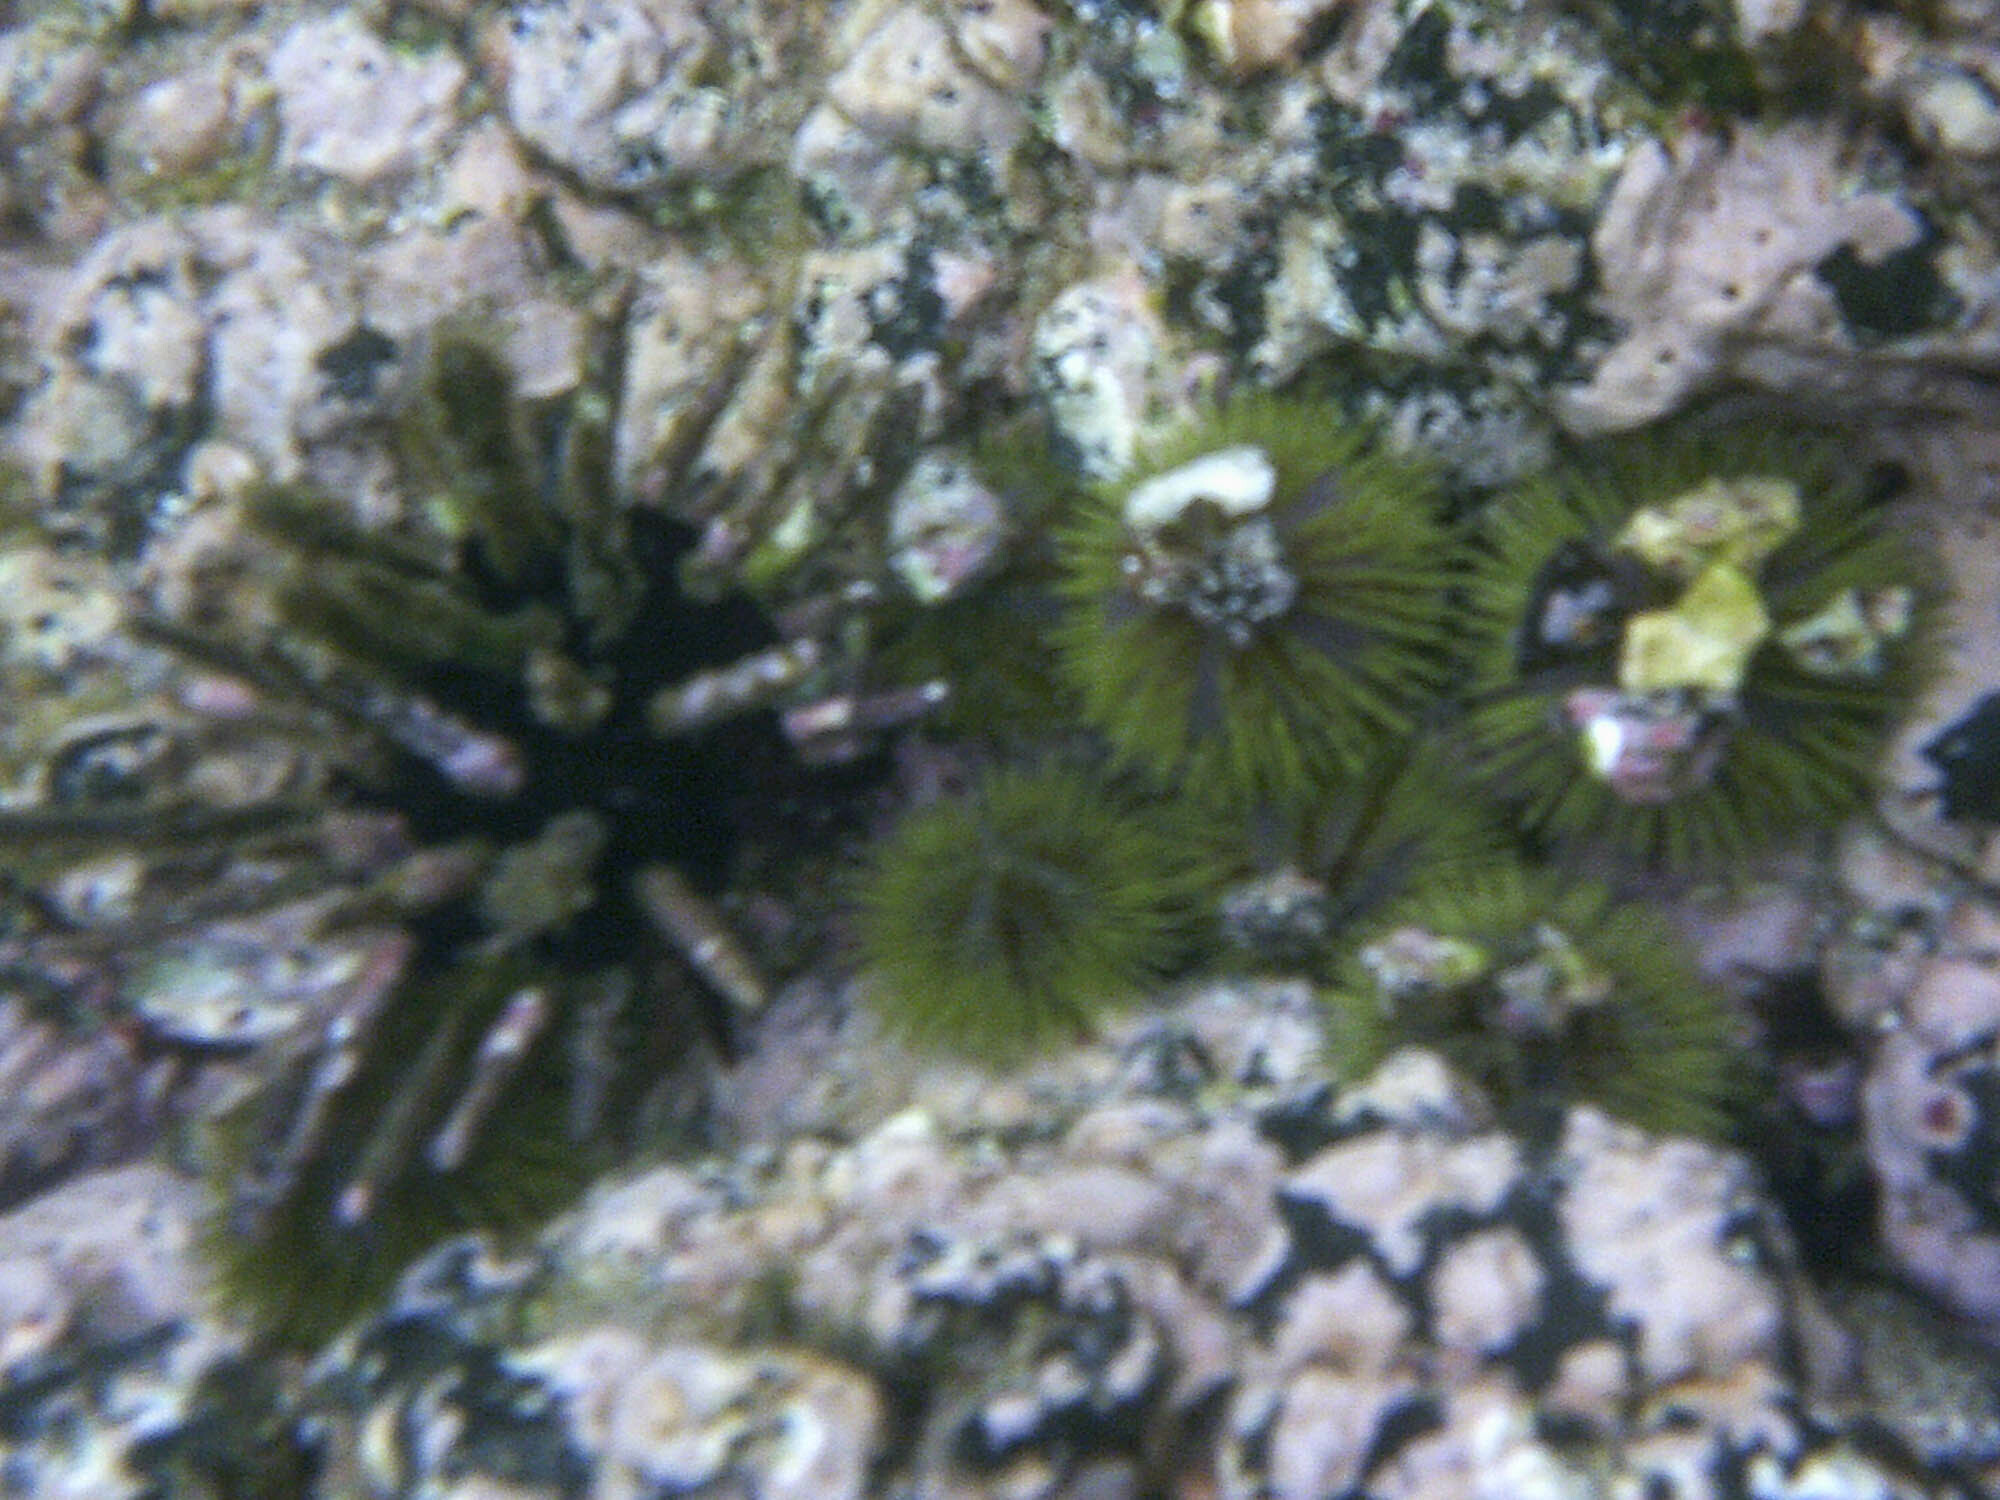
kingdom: Animalia
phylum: Echinodermata
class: Echinoidea
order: Camarodonta
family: Toxopneustidae
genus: Lytechinus
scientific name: Lytechinus semituberculatus
